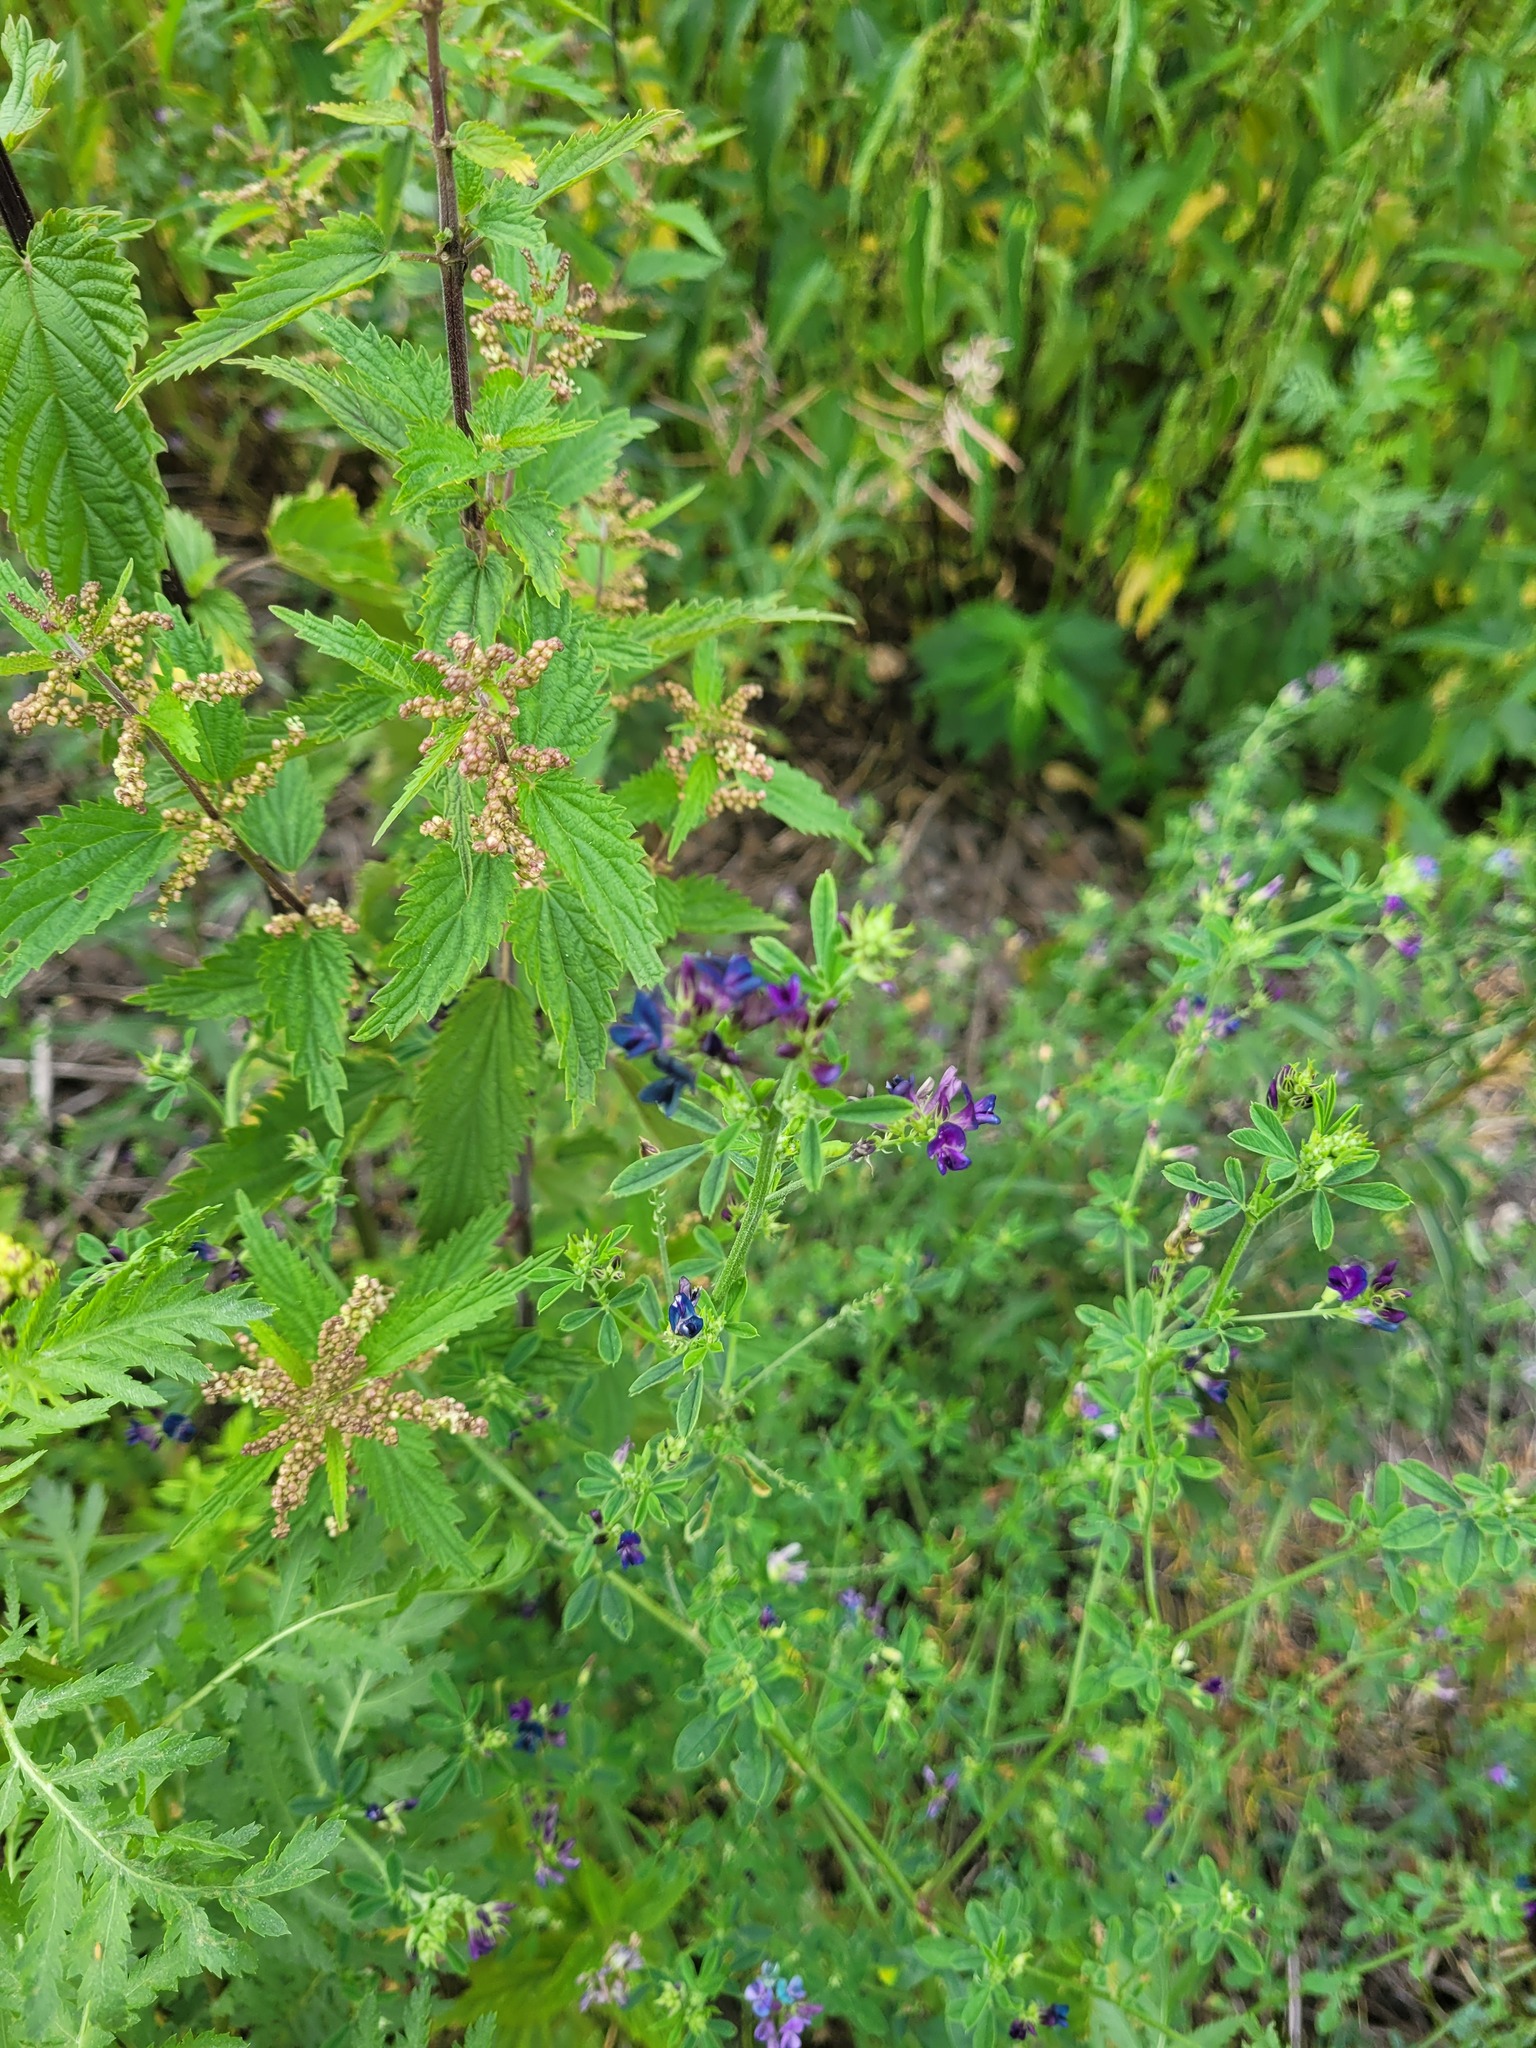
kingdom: Plantae
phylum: Tracheophyta
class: Magnoliopsida
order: Fabales
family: Fabaceae
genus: Medicago
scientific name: Medicago varia
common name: Sand lucerne
